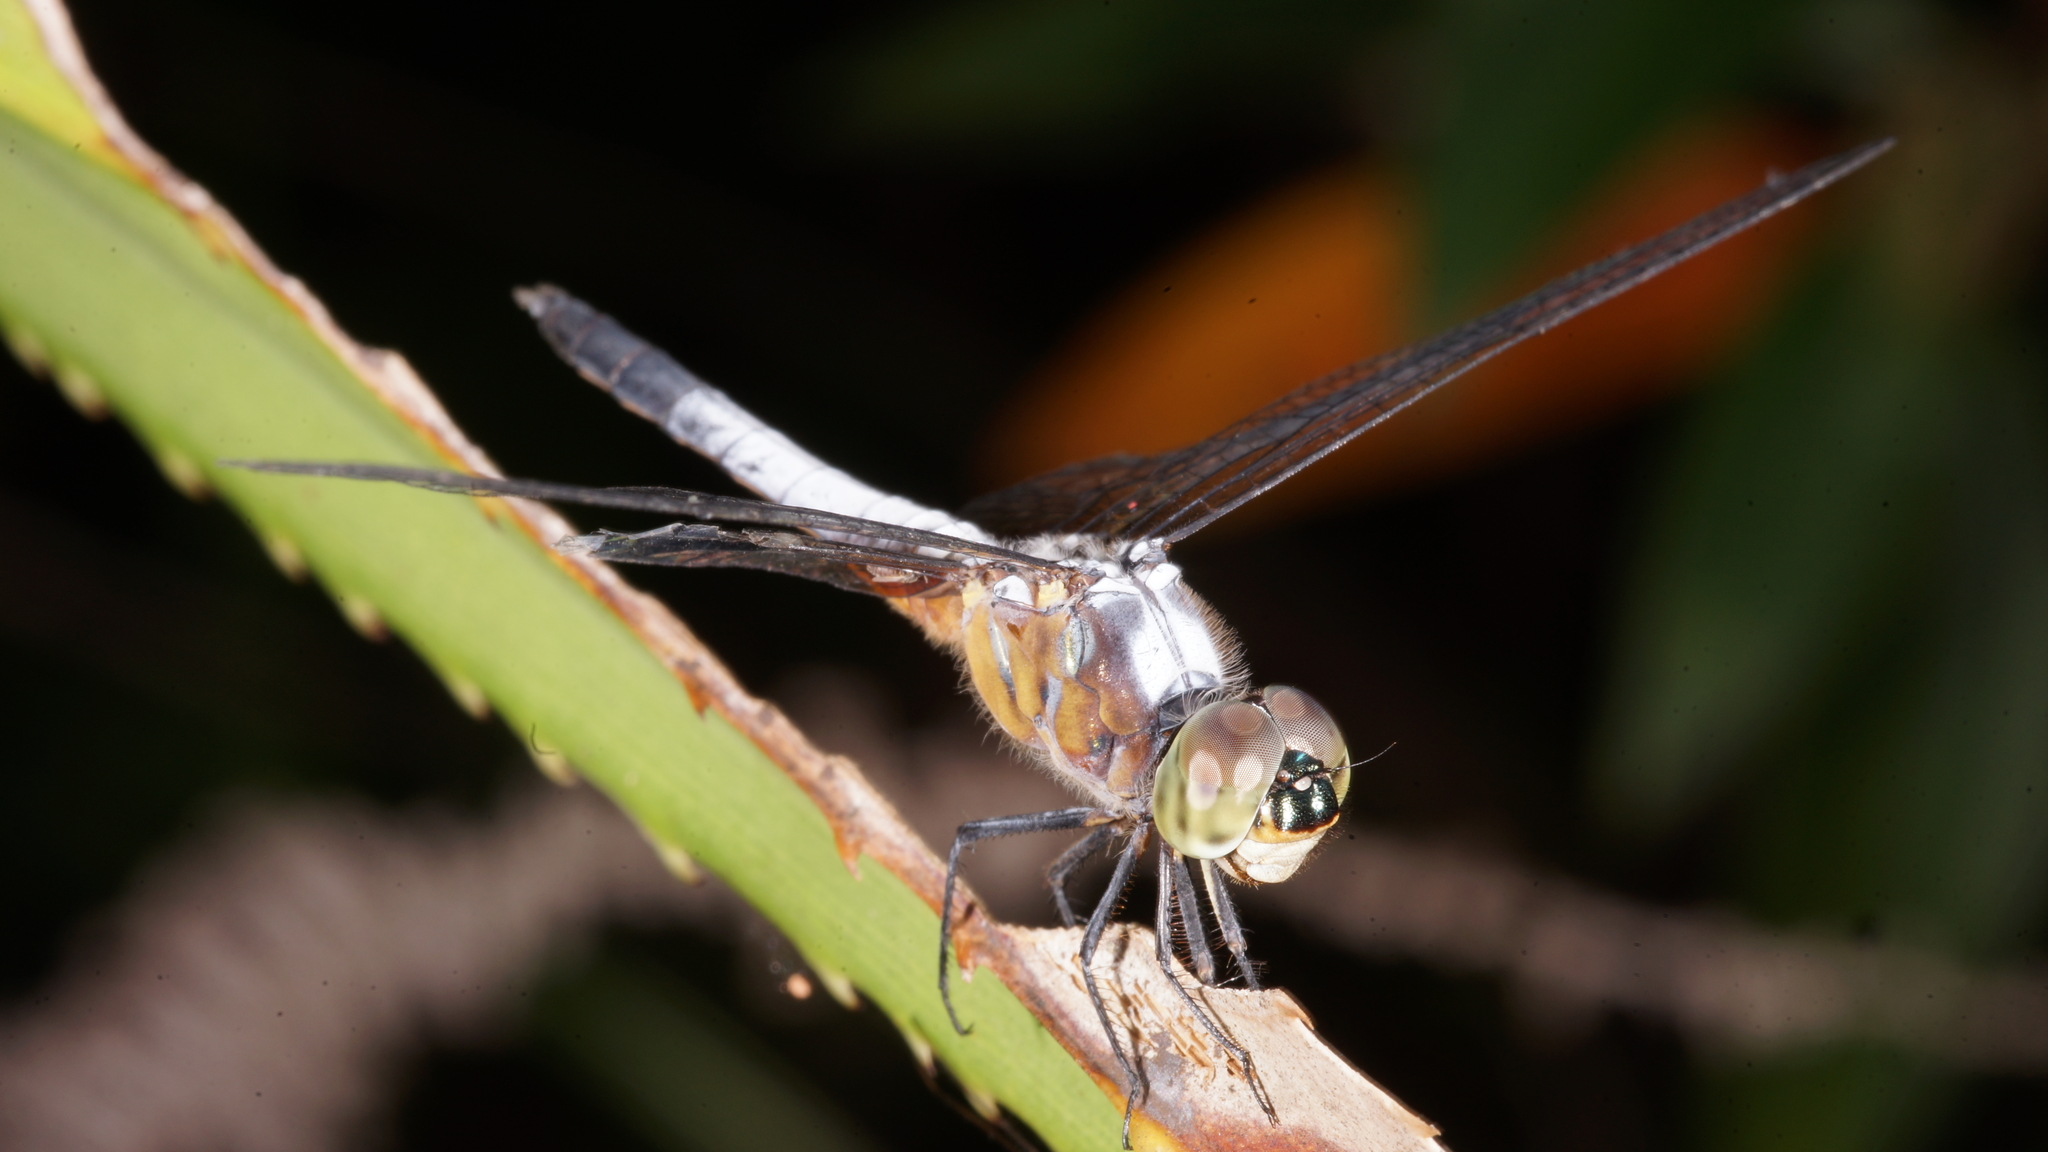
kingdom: Animalia
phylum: Arthropoda
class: Insecta
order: Odonata
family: Libellulidae
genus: Brachydiplax
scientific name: Brachydiplax chalybea
